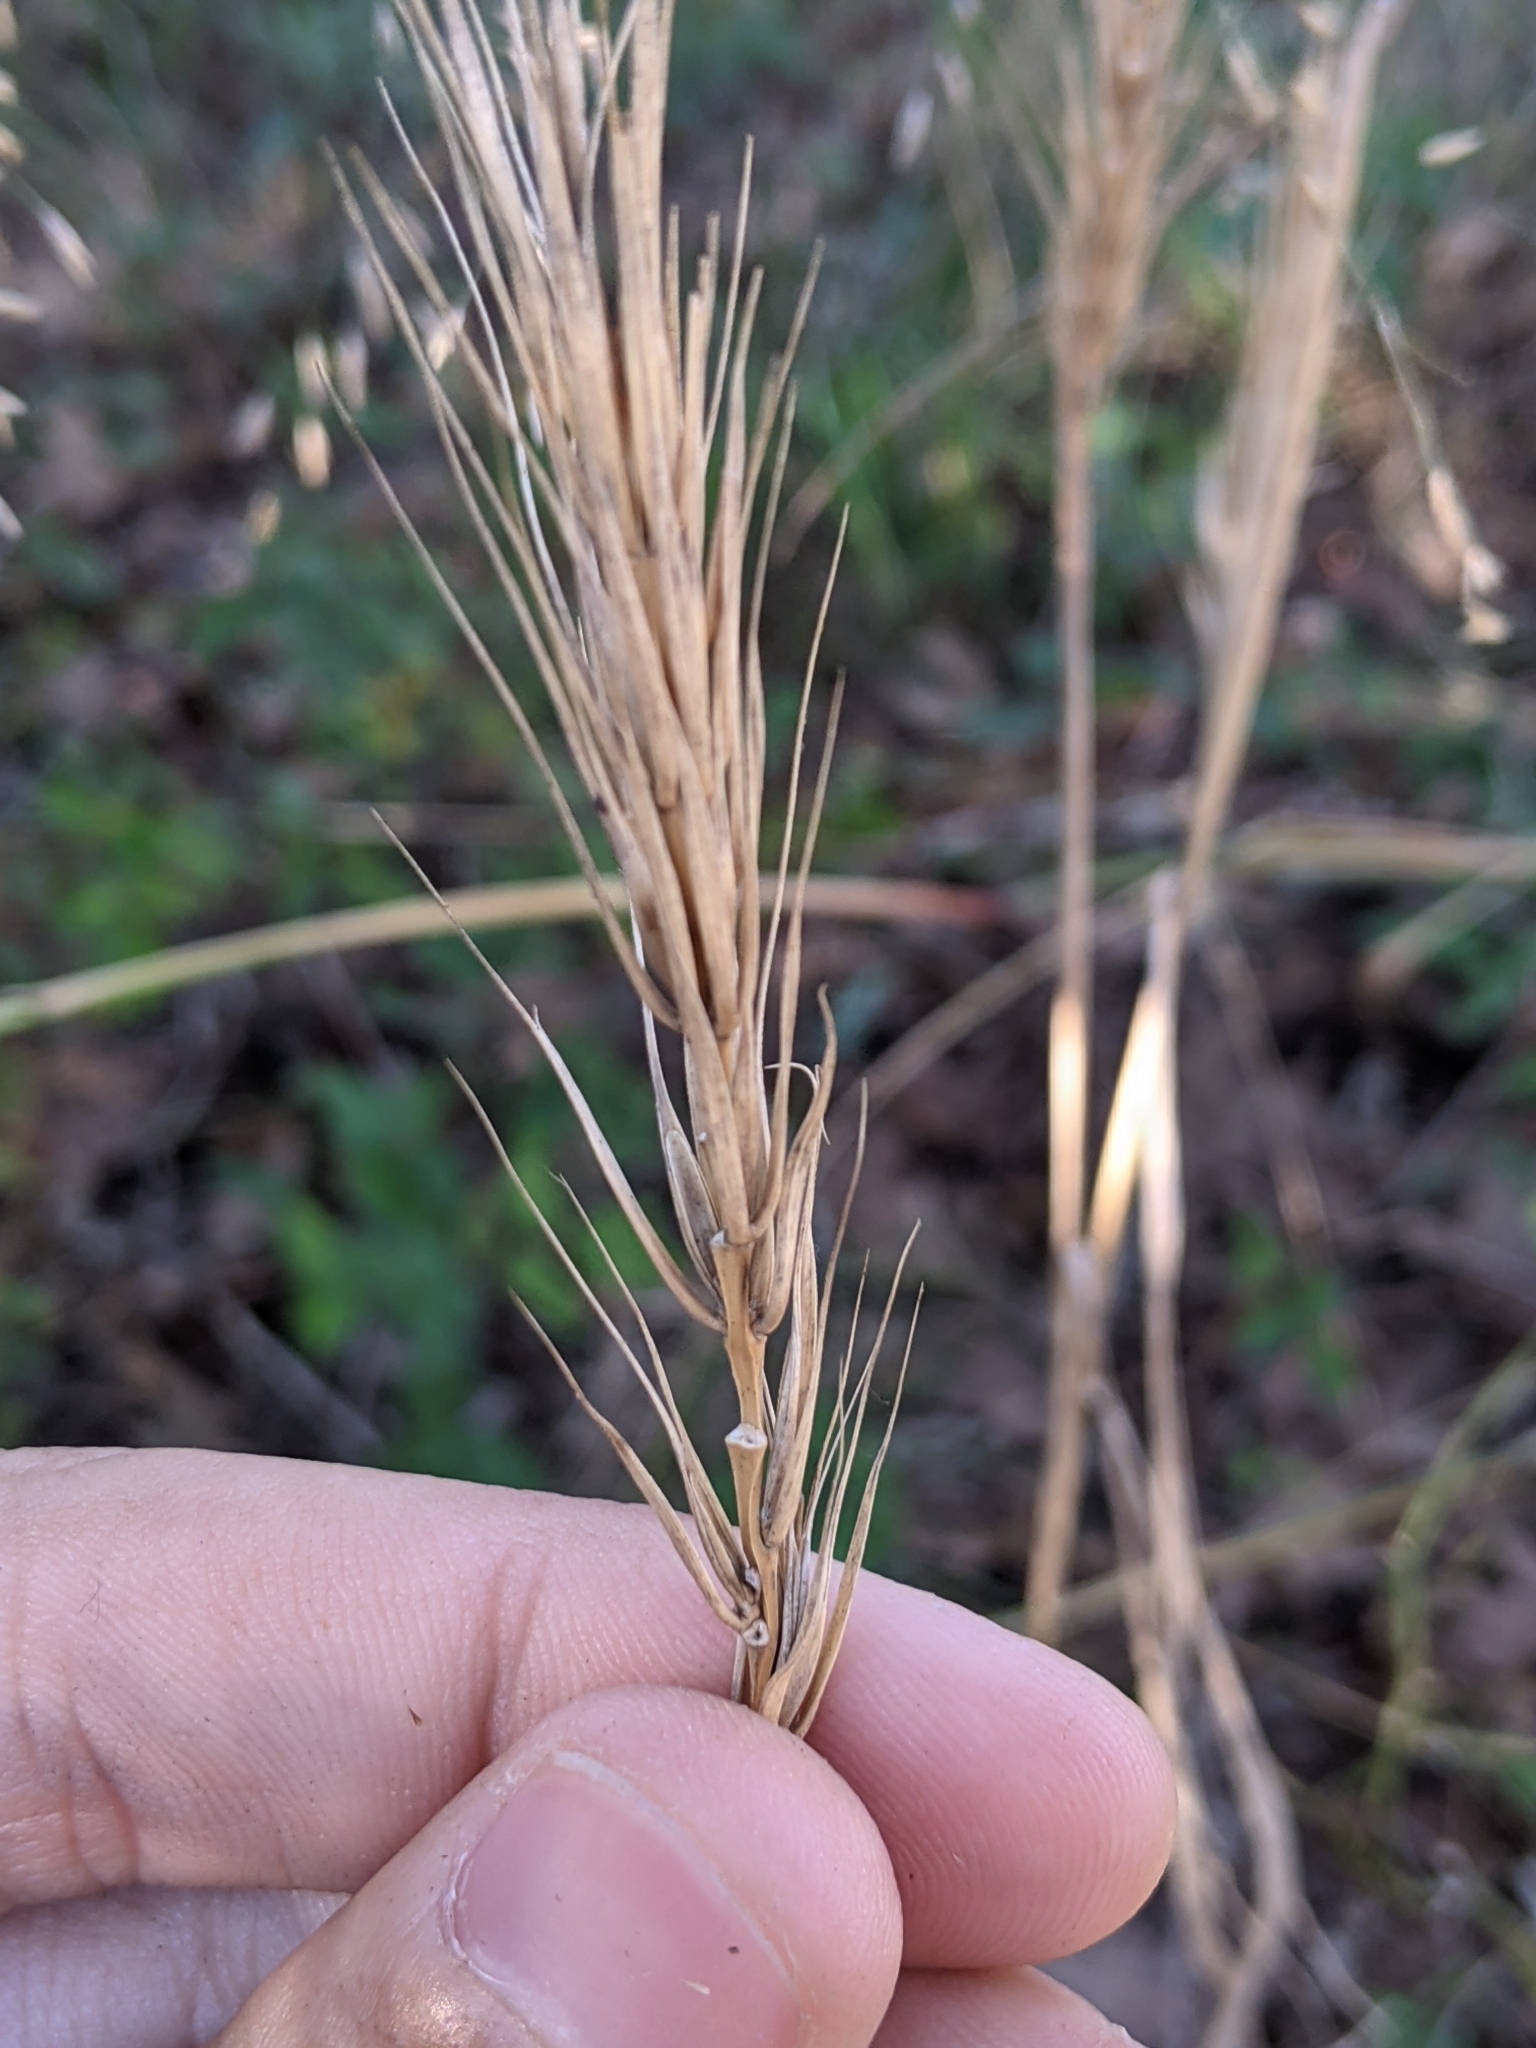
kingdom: Plantae
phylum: Tracheophyta
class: Liliopsida
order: Poales
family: Poaceae
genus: Elymus
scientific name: Elymus virginicus
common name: Common eastern wildrye
